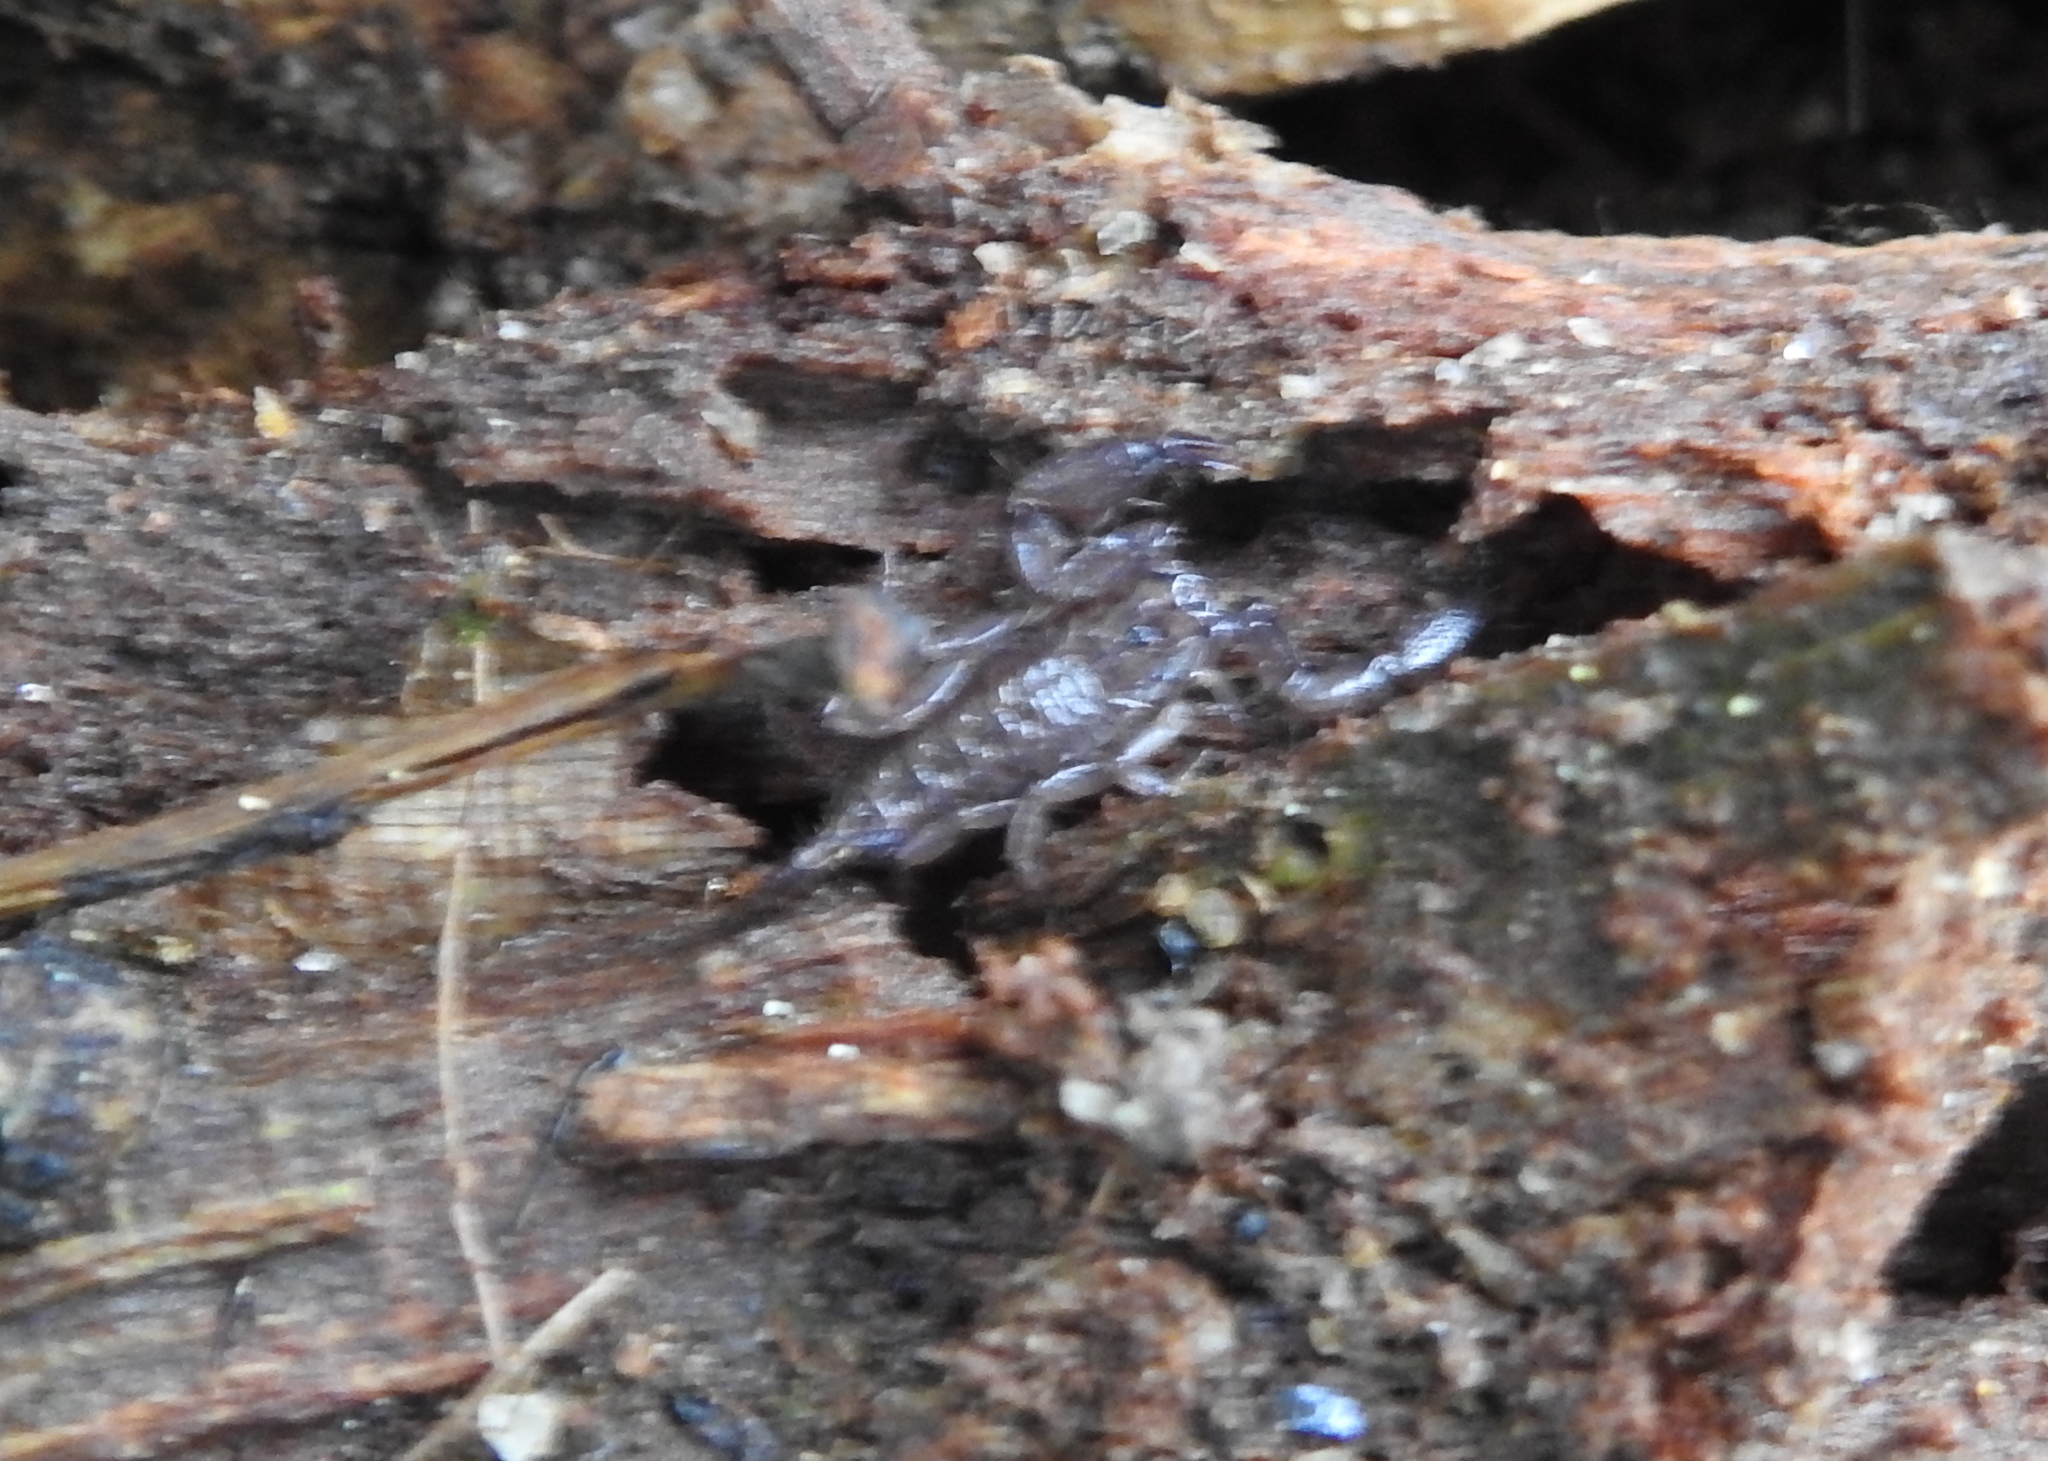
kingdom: Animalia
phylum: Arthropoda
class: Arachnida
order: Scorpiones
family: Hormuridae
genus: Liocheles
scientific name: Liocheles australasiae
